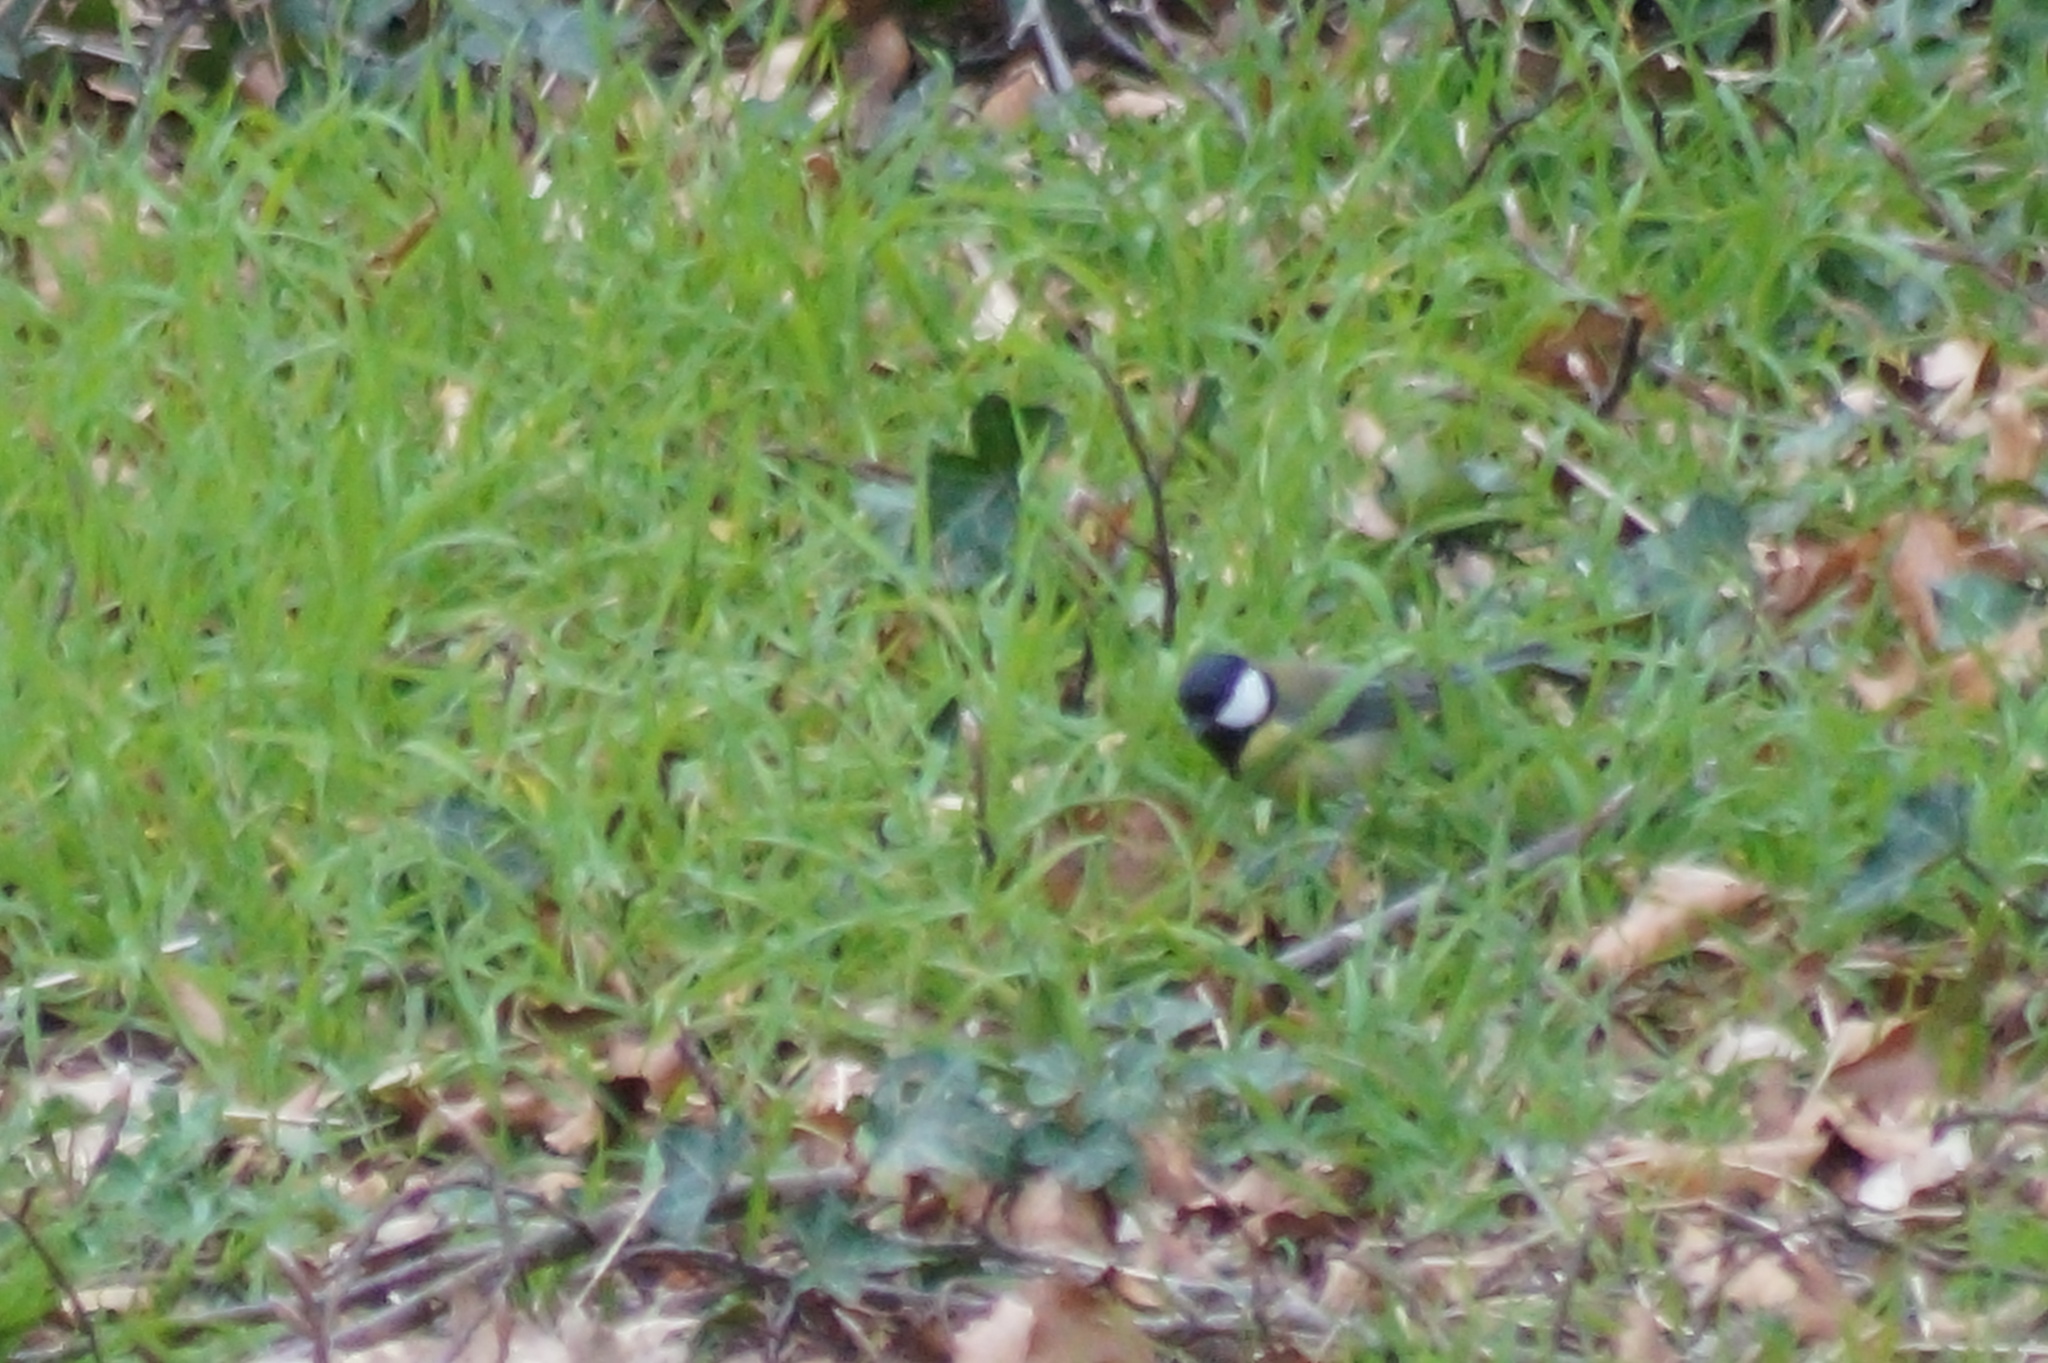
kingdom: Animalia
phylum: Chordata
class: Aves
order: Passeriformes
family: Paridae
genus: Parus
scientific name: Parus major
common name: Great tit
